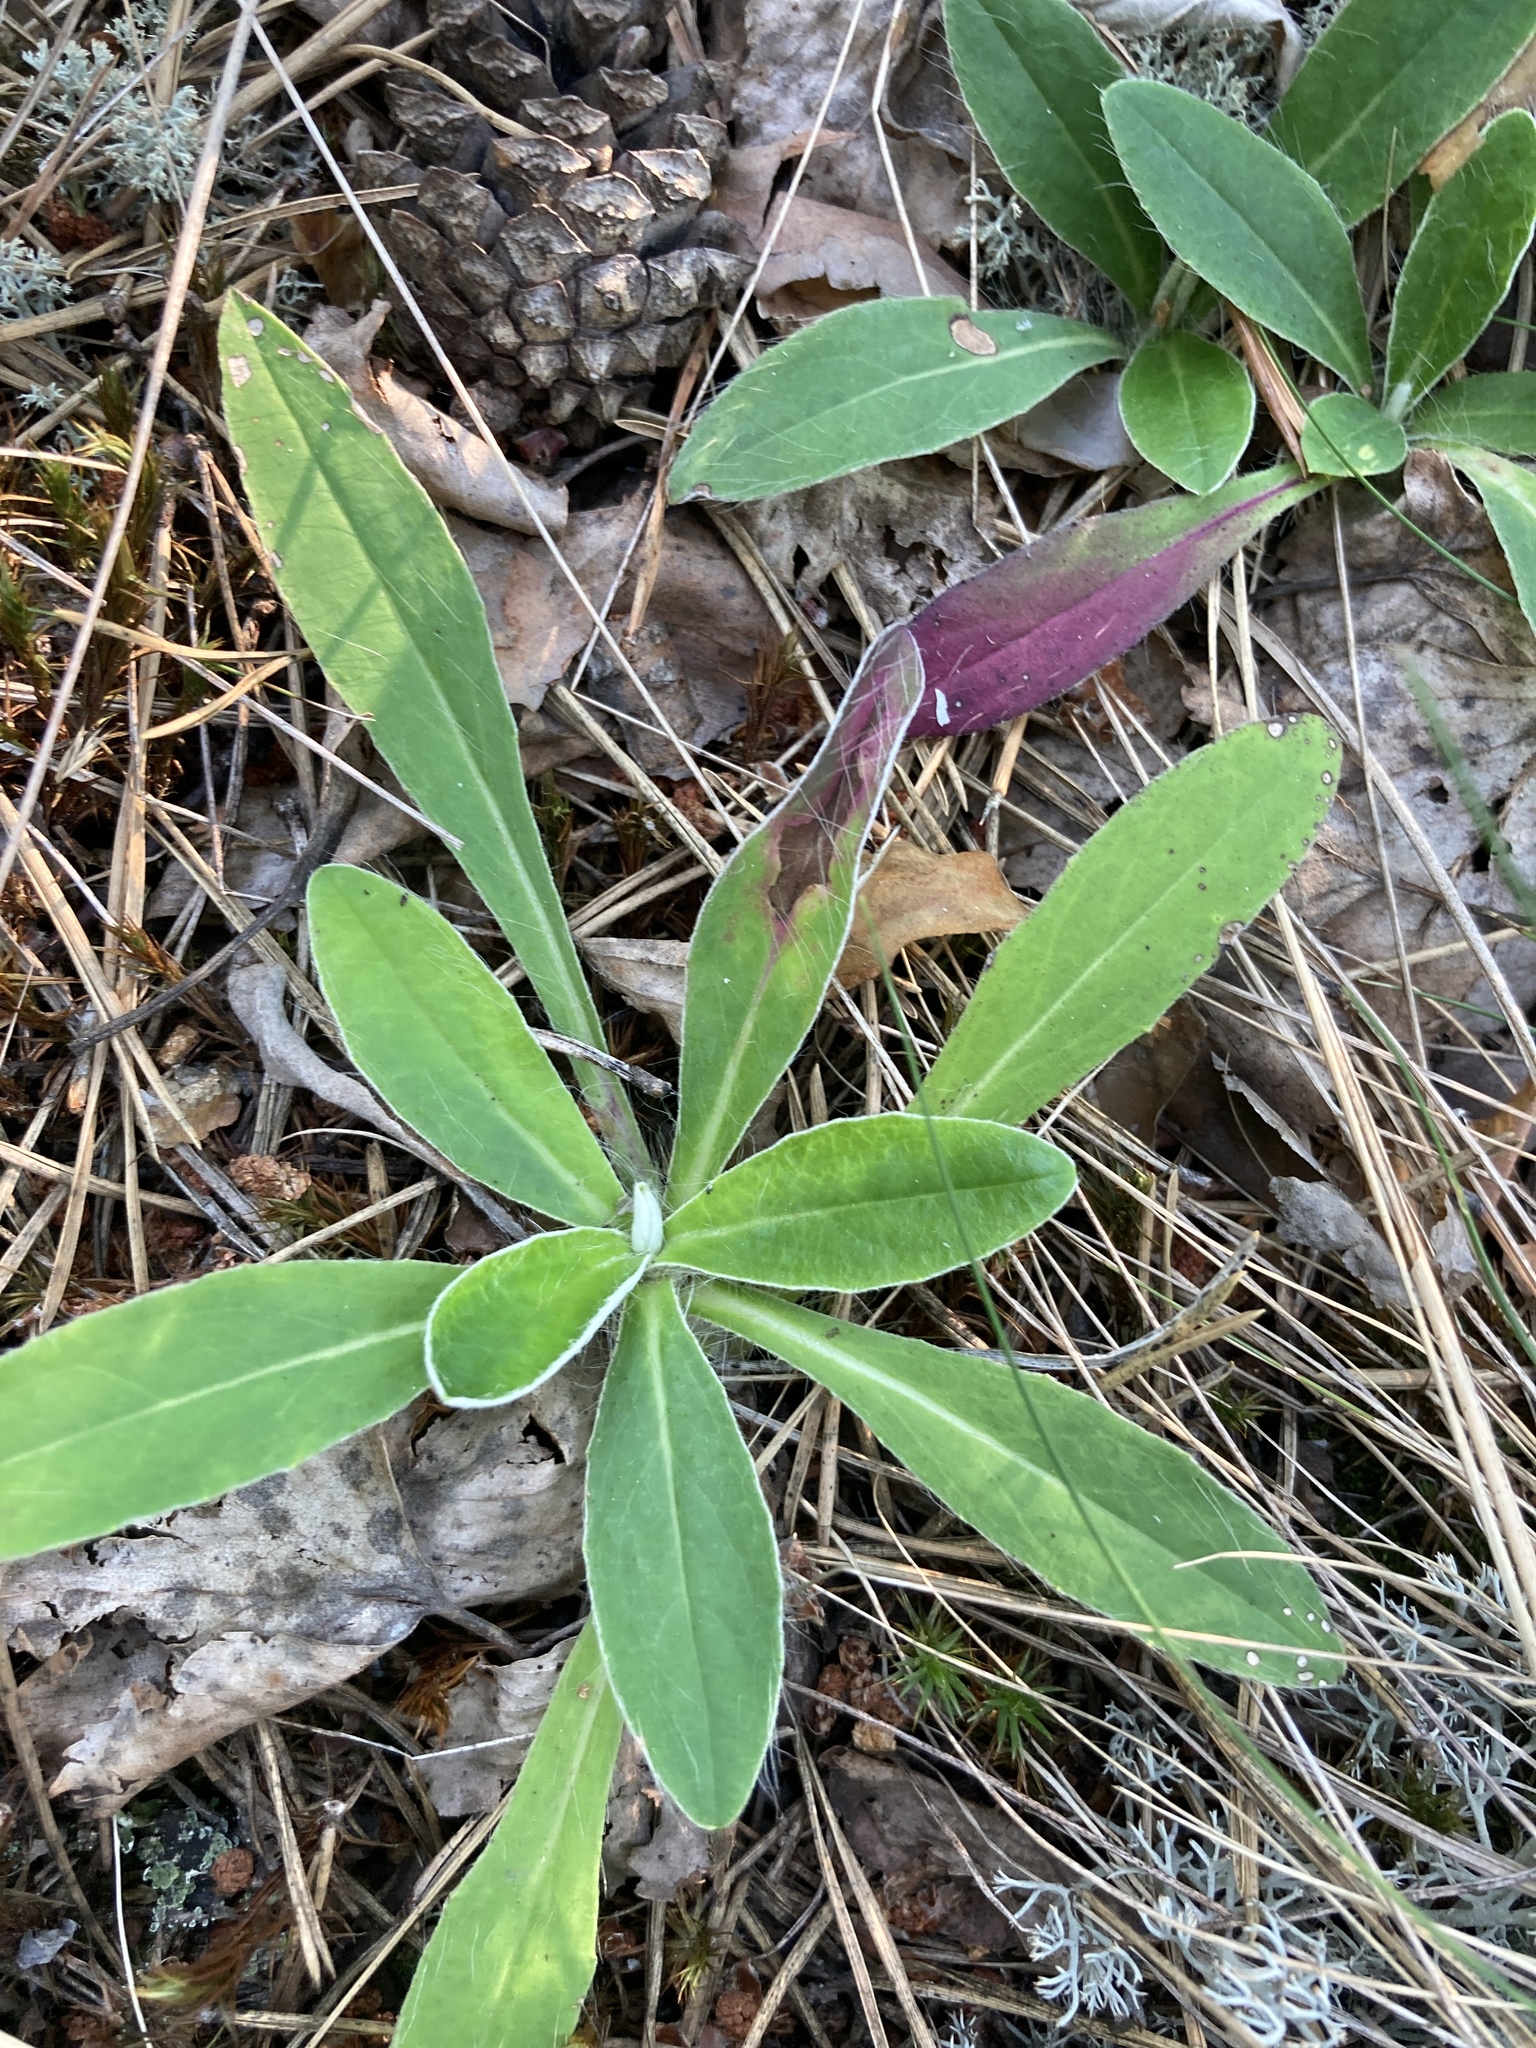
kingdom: Plantae
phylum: Tracheophyta
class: Magnoliopsida
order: Asterales
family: Asteraceae
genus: Pilosella
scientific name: Pilosella officinarum
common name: Mouse-ear hawkweed
